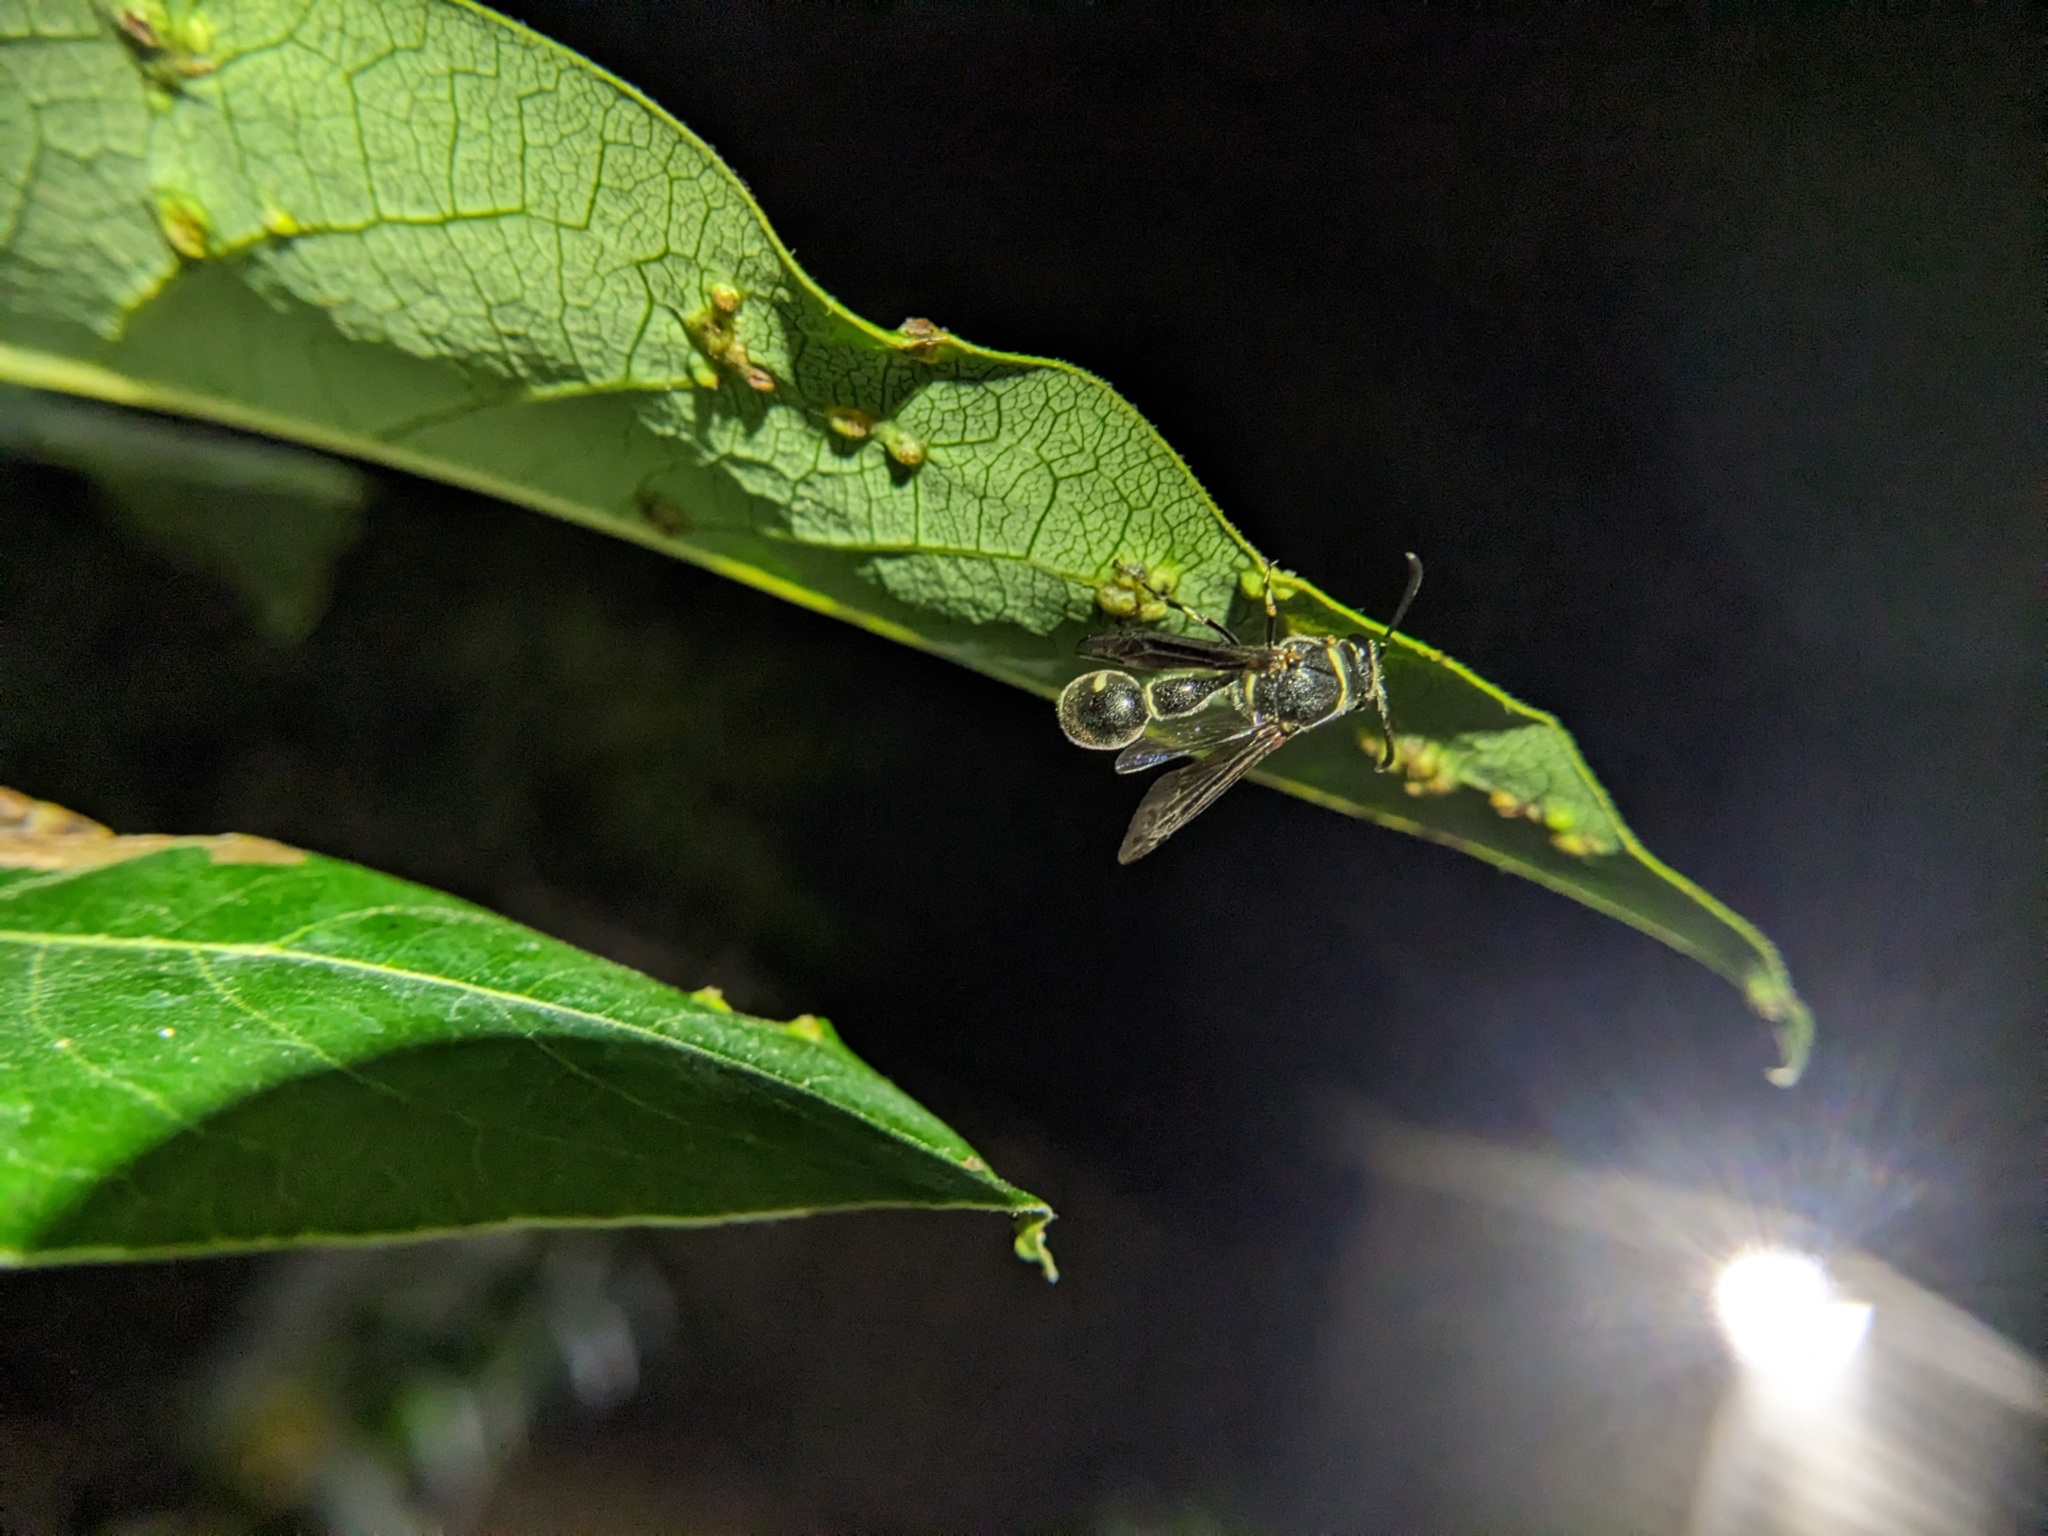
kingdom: Animalia
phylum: Arthropoda
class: Insecta
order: Hymenoptera
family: Vespidae
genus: Eumenes
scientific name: Eumenes fraternus
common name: Fraternal potter wasp
